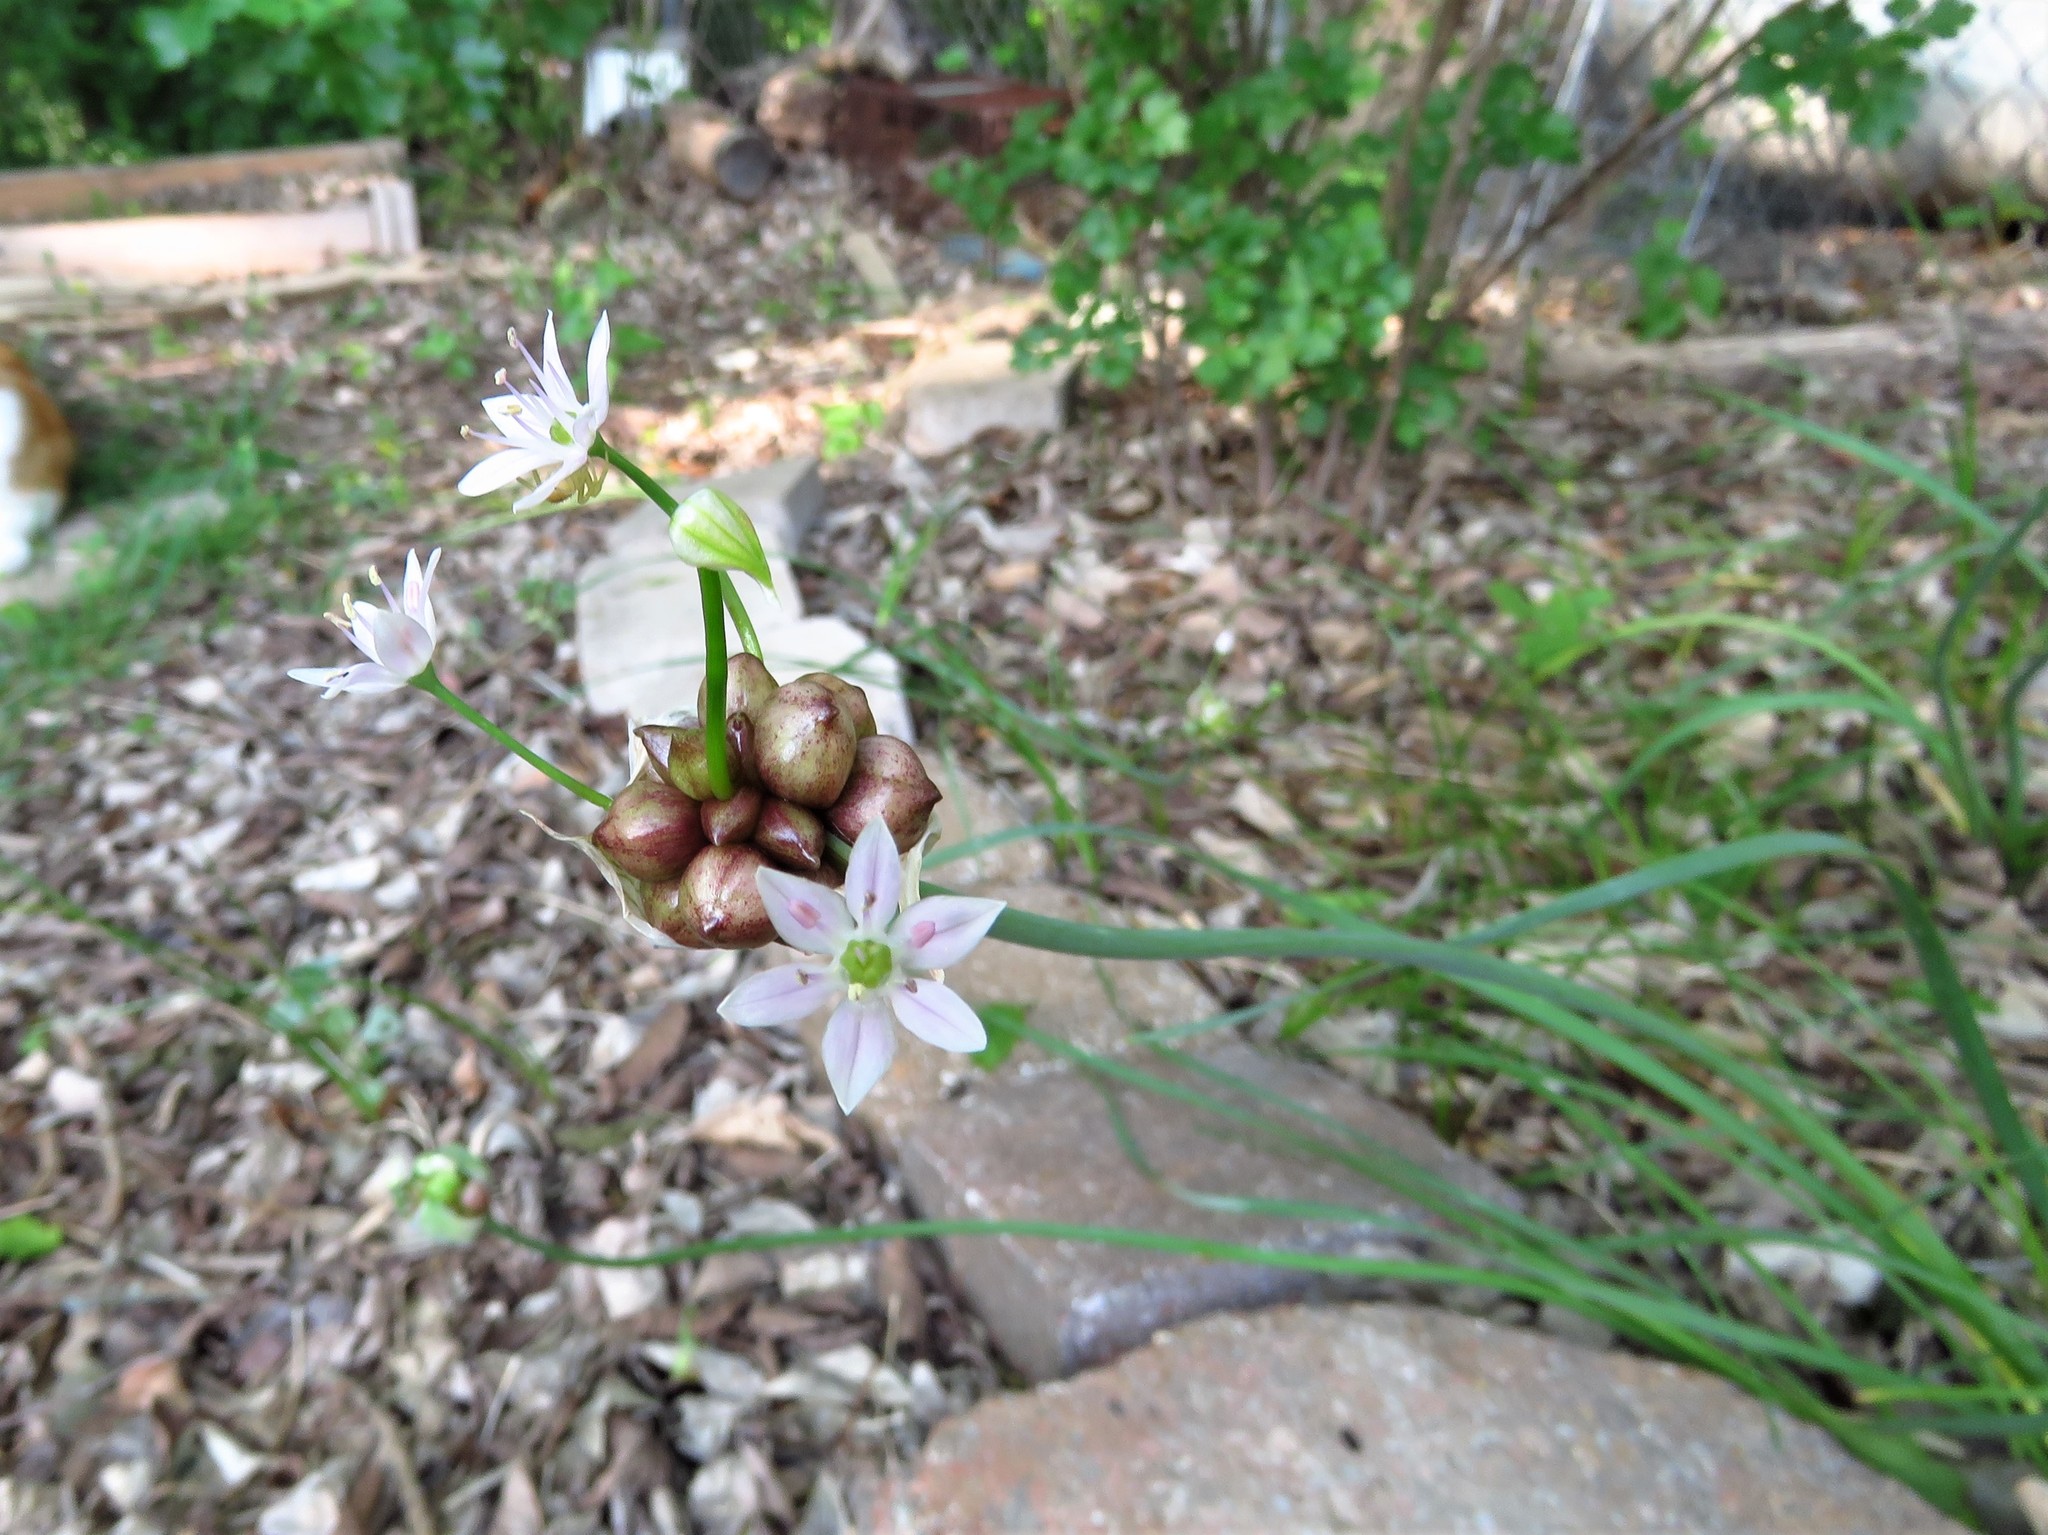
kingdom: Plantae
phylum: Tracheophyta
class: Liliopsida
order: Asparagales
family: Amaryllidaceae
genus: Allium
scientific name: Allium canadense
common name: Meadow garlic
